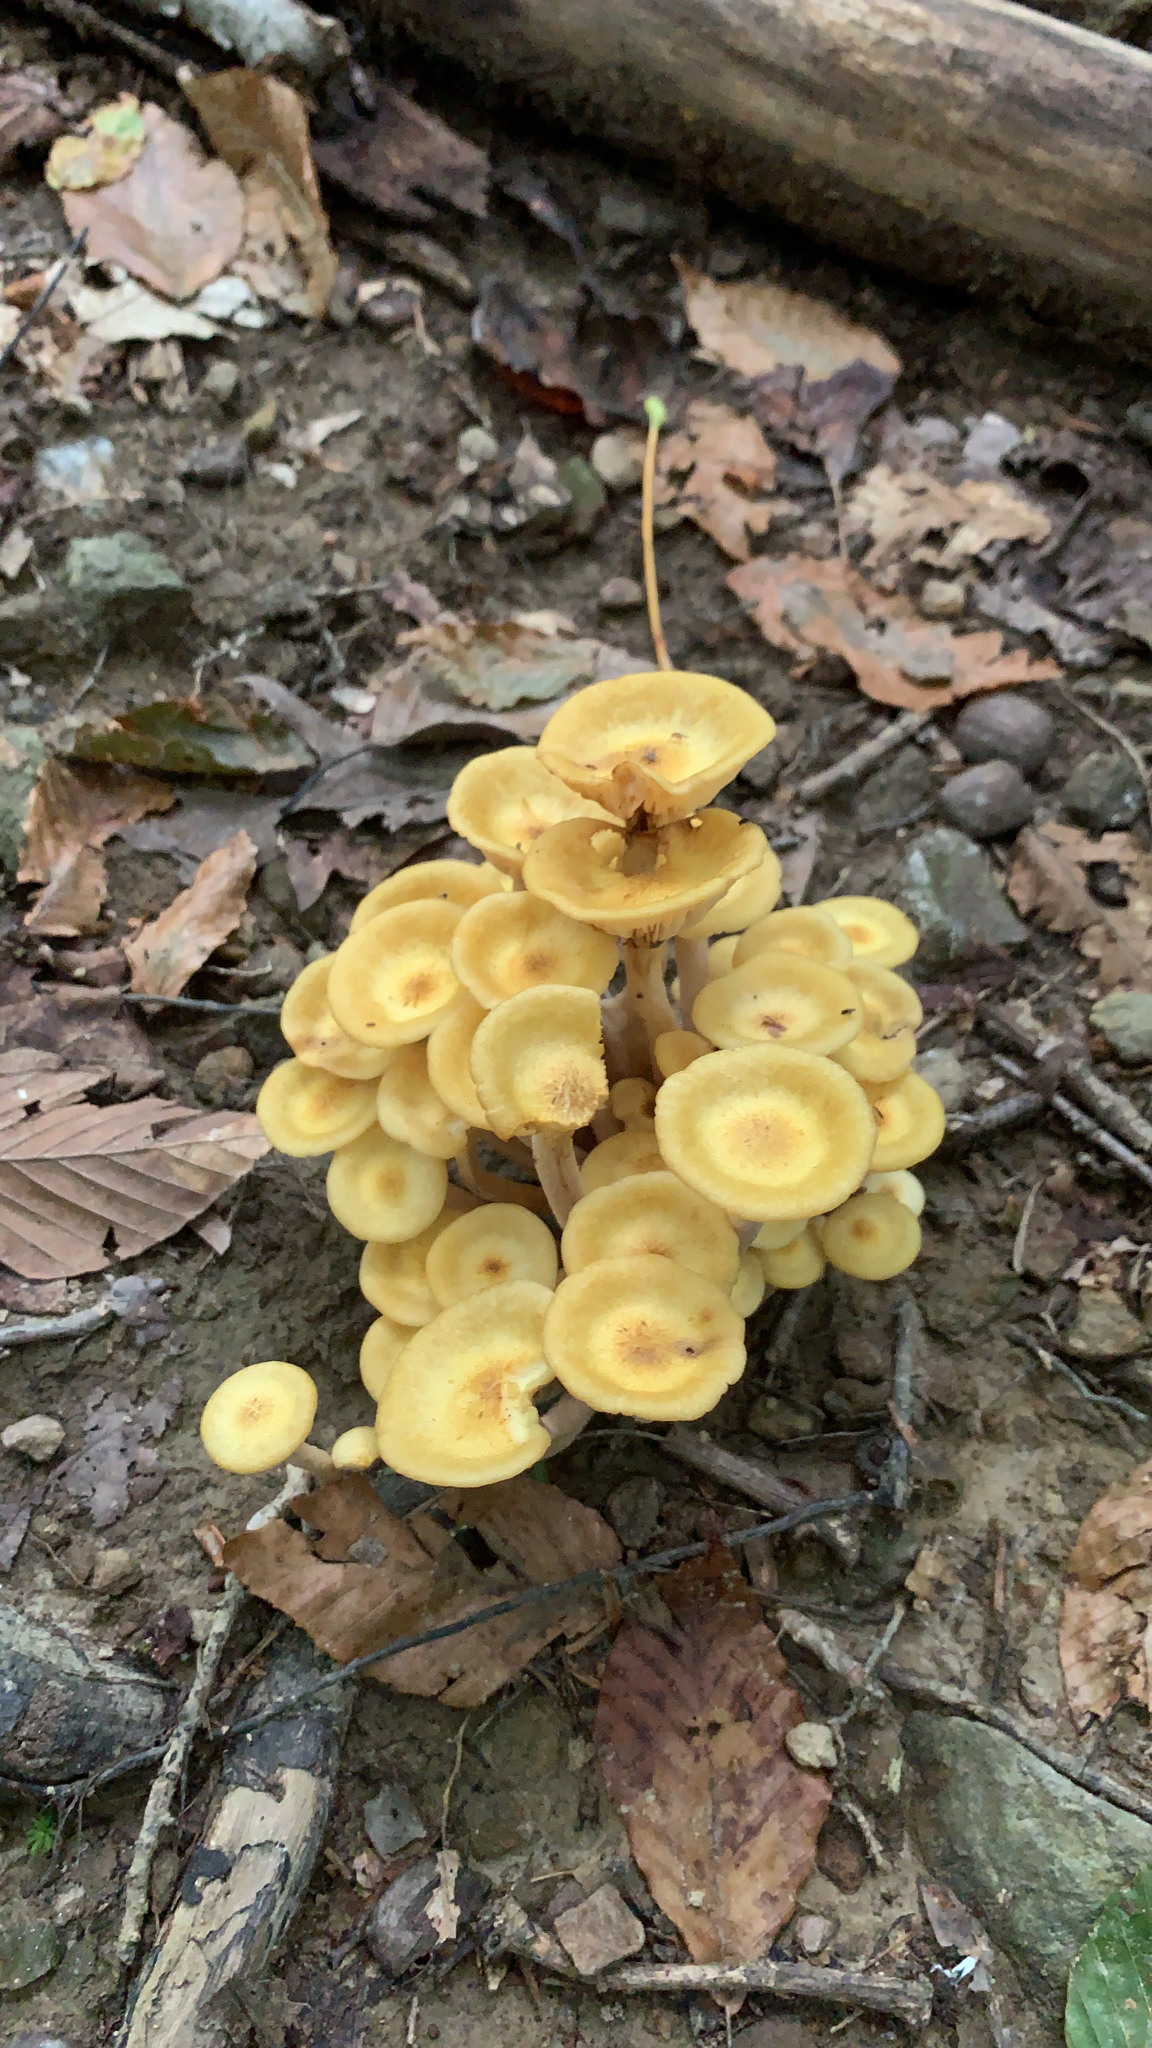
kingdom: Fungi
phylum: Basidiomycota
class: Agaricomycetes
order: Agaricales
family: Physalacriaceae
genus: Desarmillaria
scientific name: Desarmillaria caespitosa
